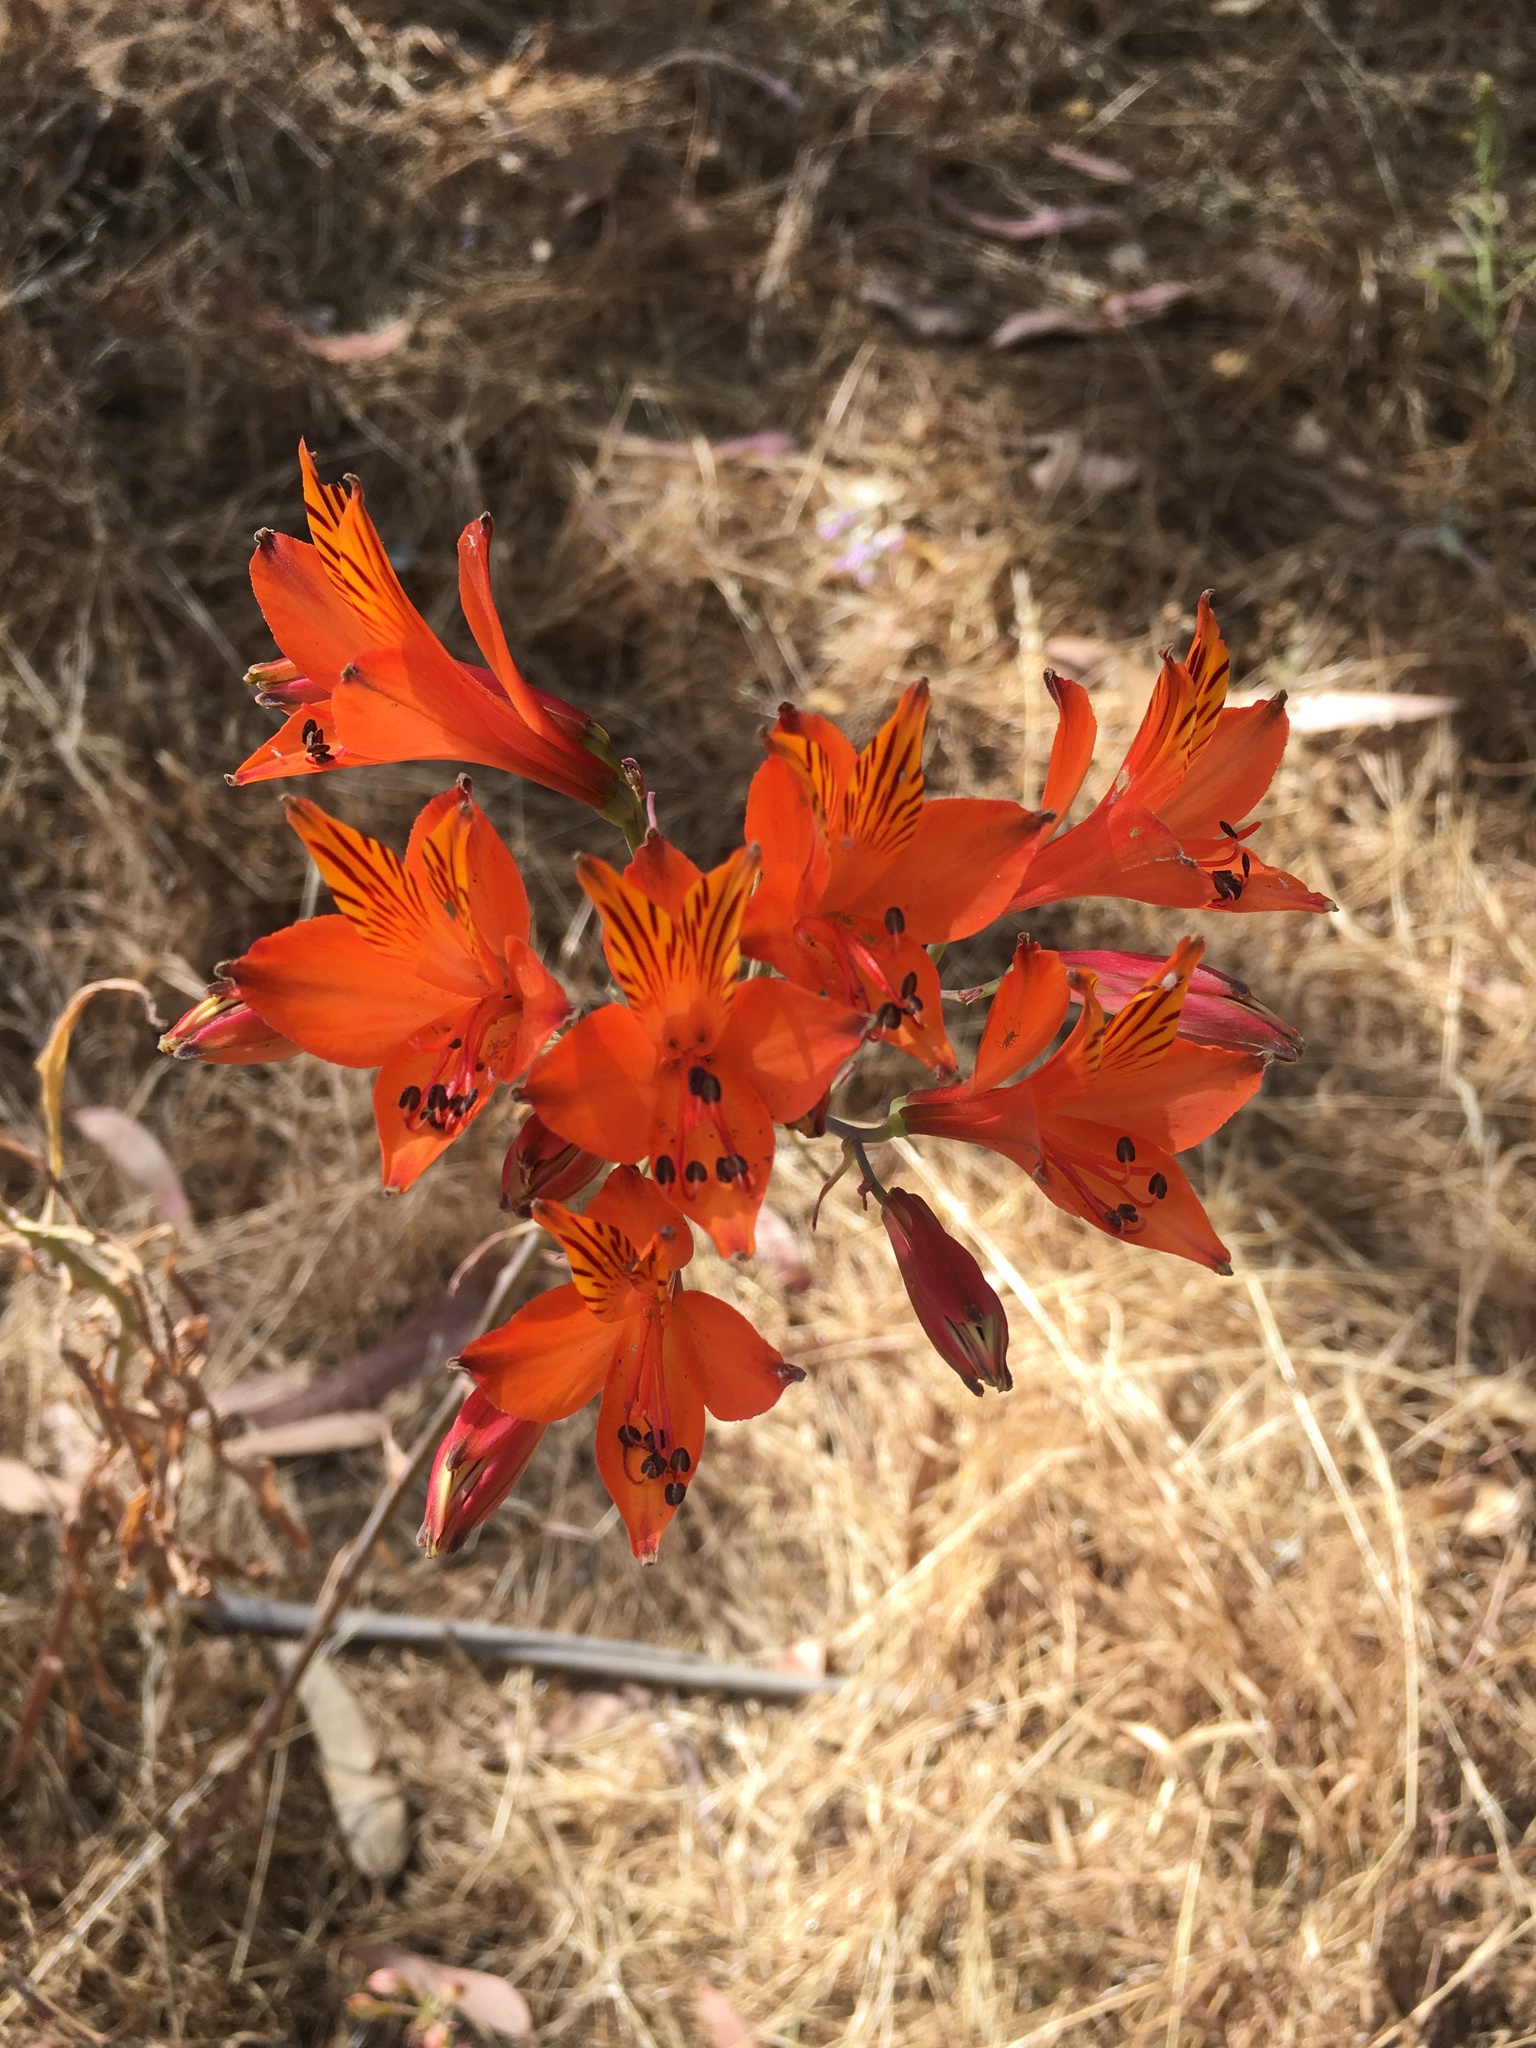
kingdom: Plantae
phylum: Tracheophyta
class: Liliopsida
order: Liliales
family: Alstroemeriaceae
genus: Alstroemeria
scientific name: Alstroemeria ligtu
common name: St. martin's-flower
